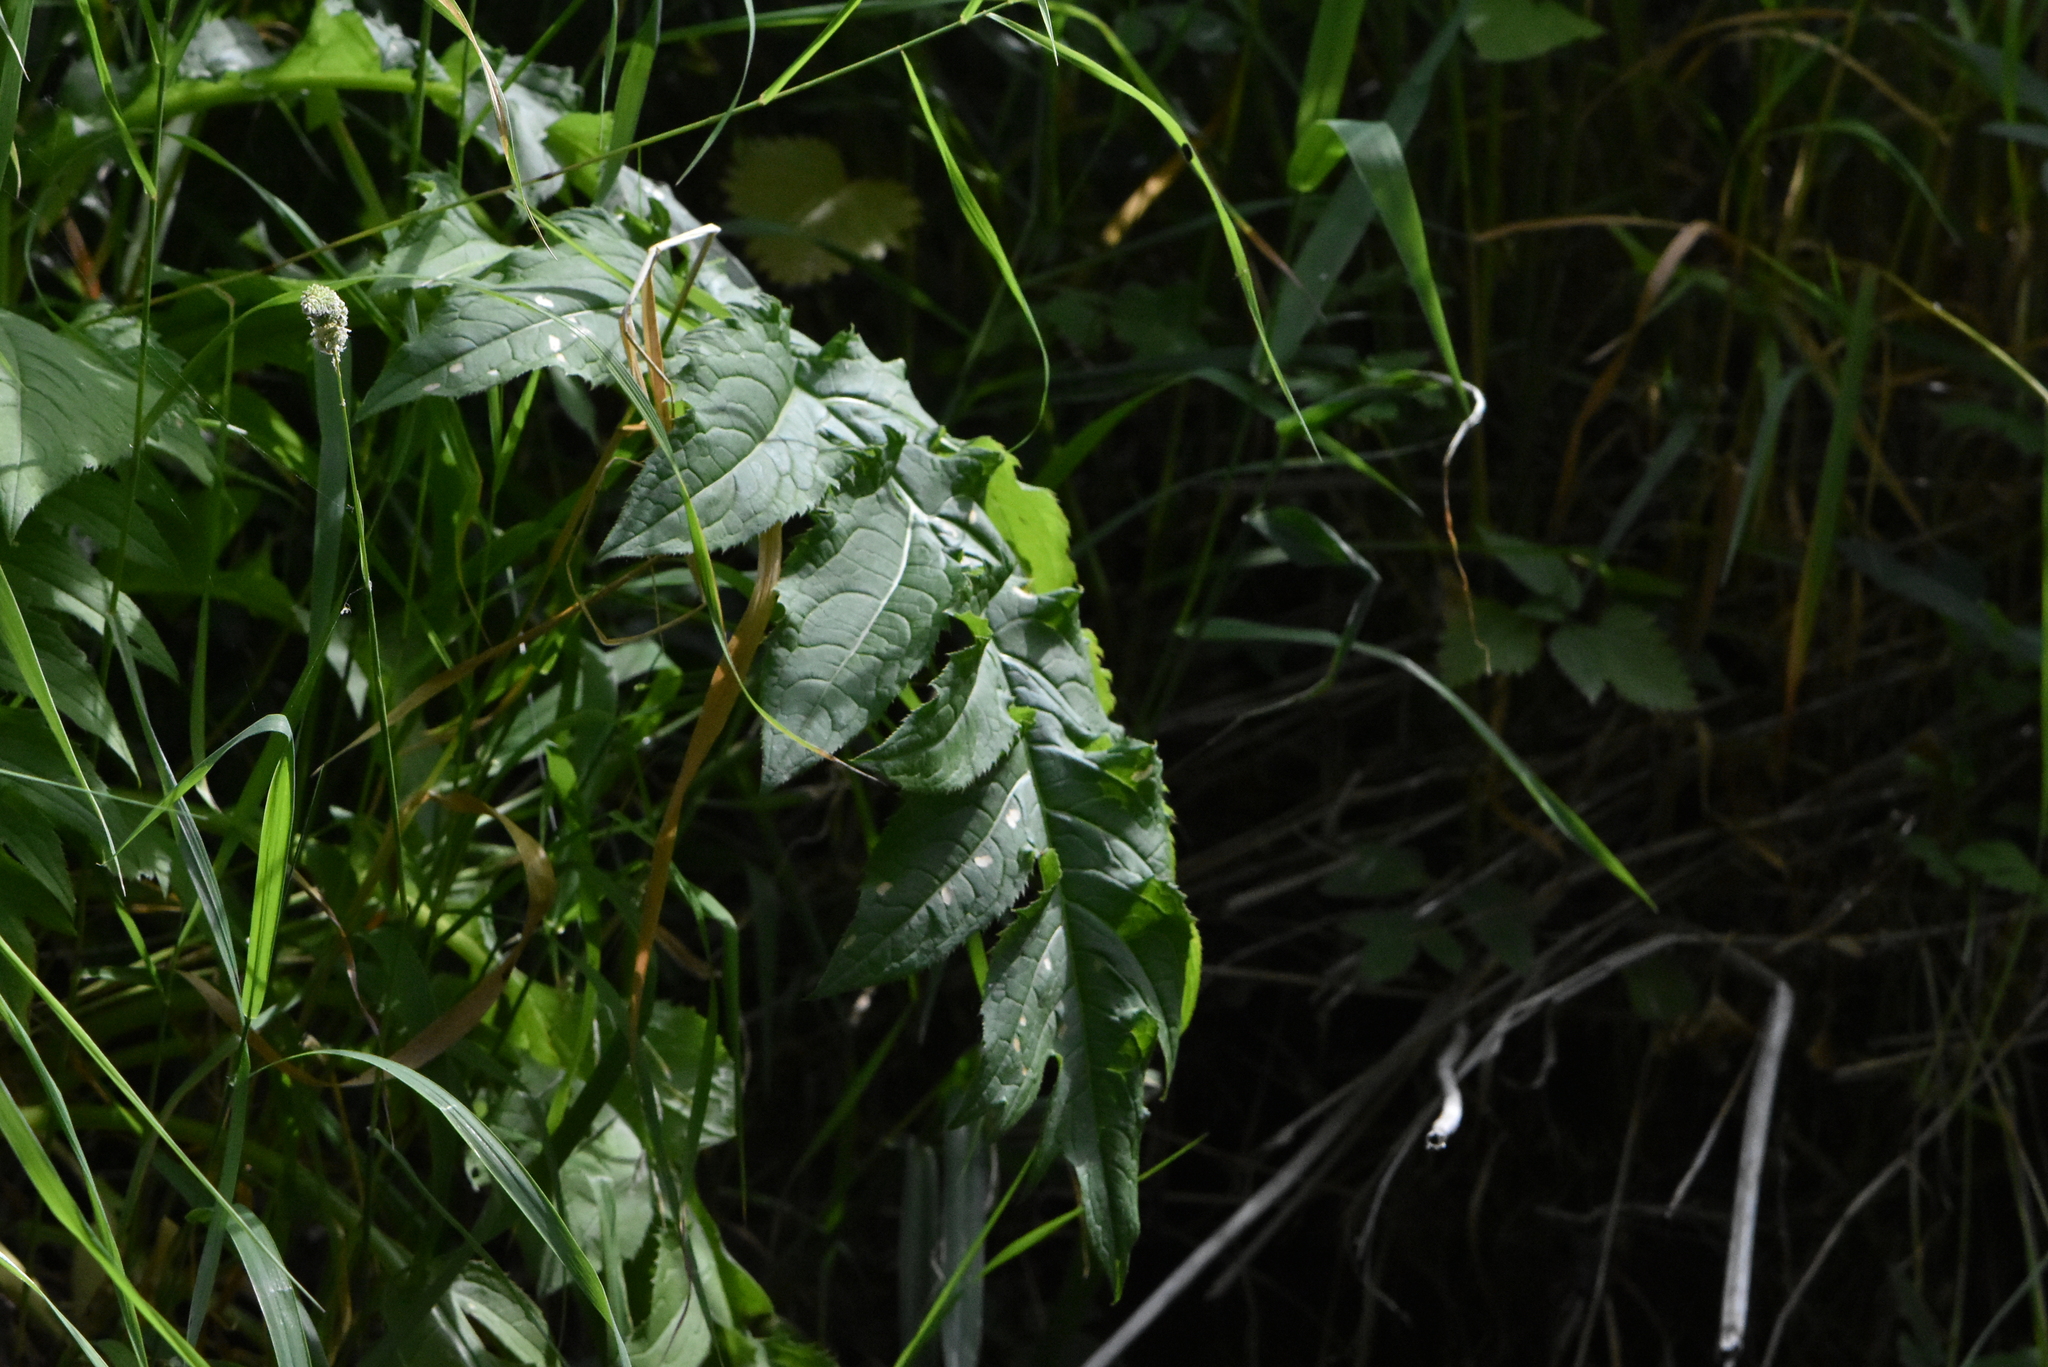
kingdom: Plantae
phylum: Tracheophyta
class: Magnoliopsida
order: Asterales
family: Asteraceae
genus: Cirsium
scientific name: Cirsium oleraceum
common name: Cabbage thistle
